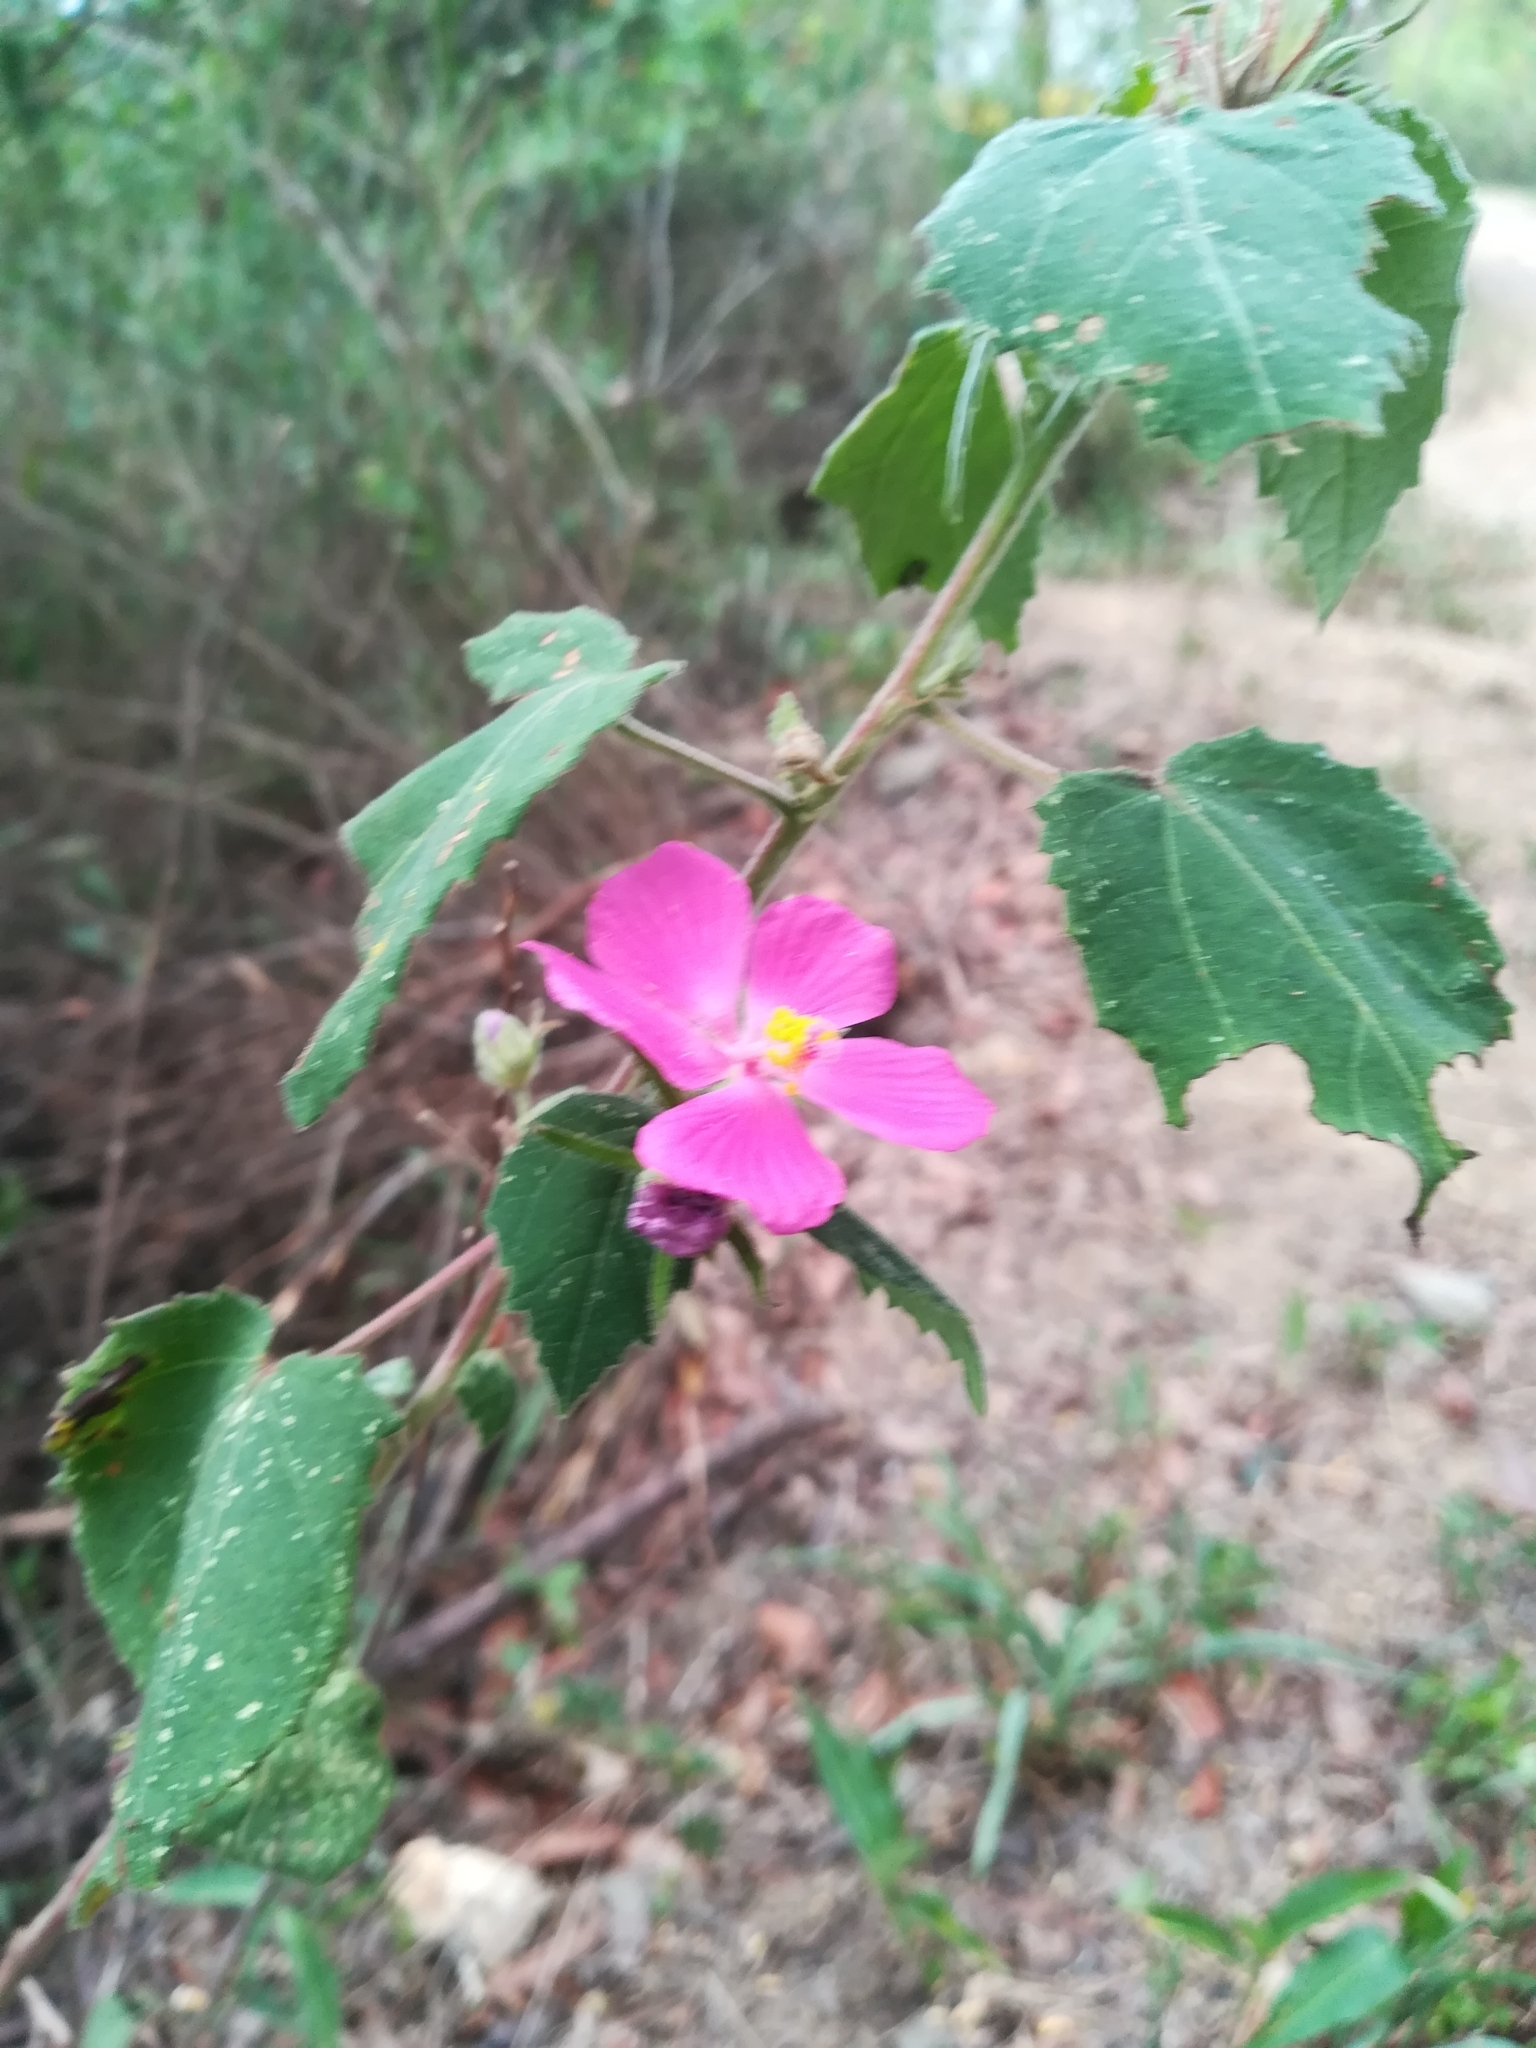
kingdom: Plantae
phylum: Tracheophyta
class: Magnoliopsida
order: Malvales
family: Malvaceae
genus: Pavonia
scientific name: Pavonia lasiopetala
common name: Texas swamp-mallow
